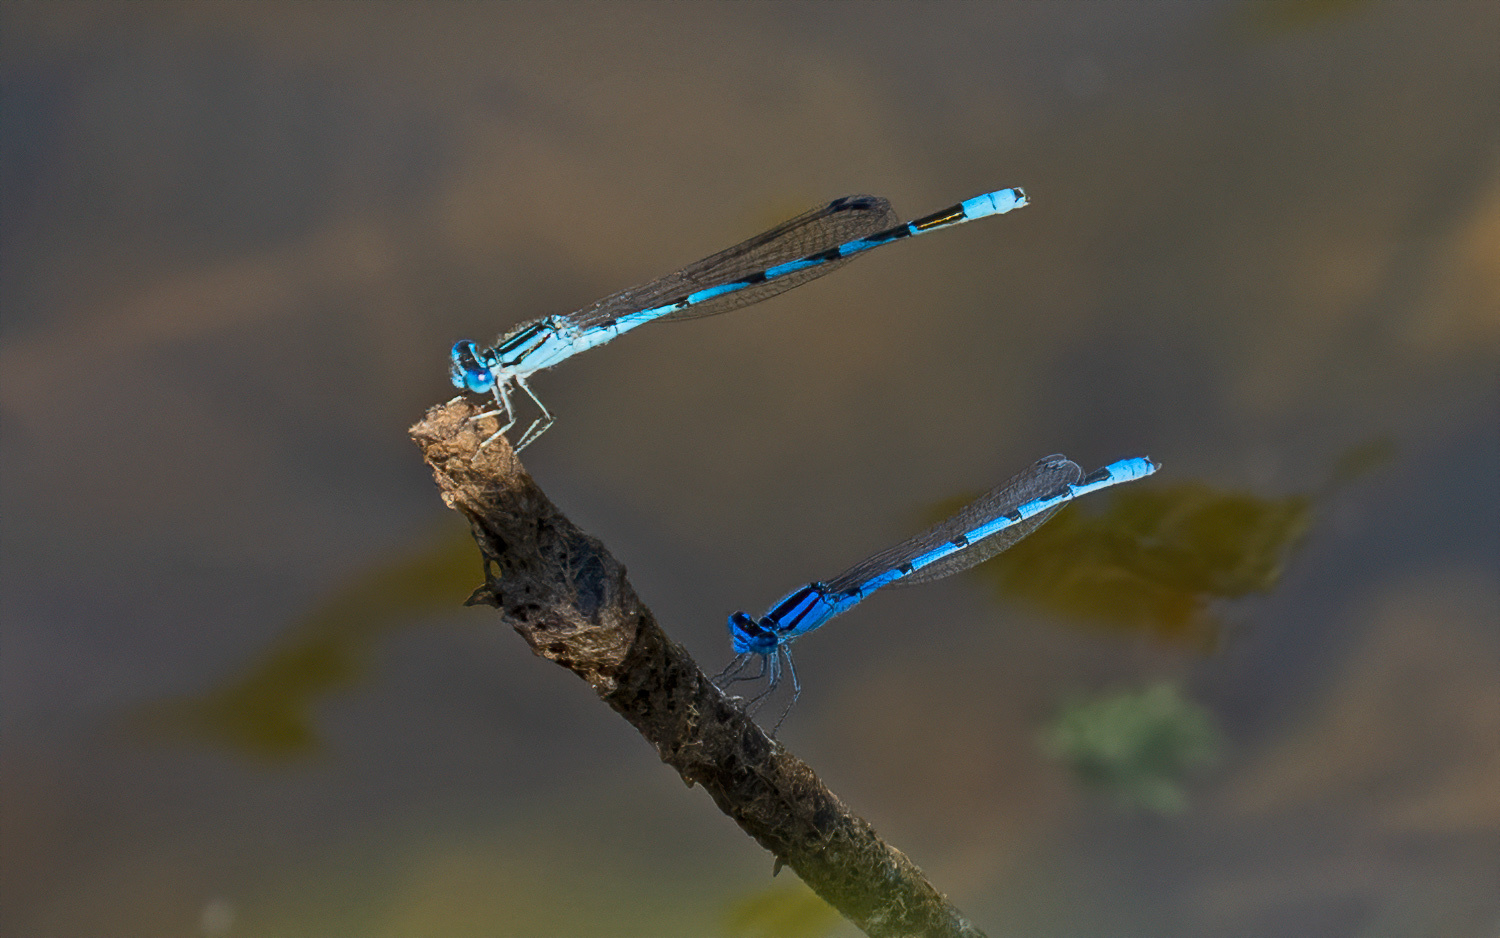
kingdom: Animalia
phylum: Arthropoda
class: Insecta
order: Odonata
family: Coenagrionidae
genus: Enallagma
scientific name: Enallagma durum
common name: Big bluet
